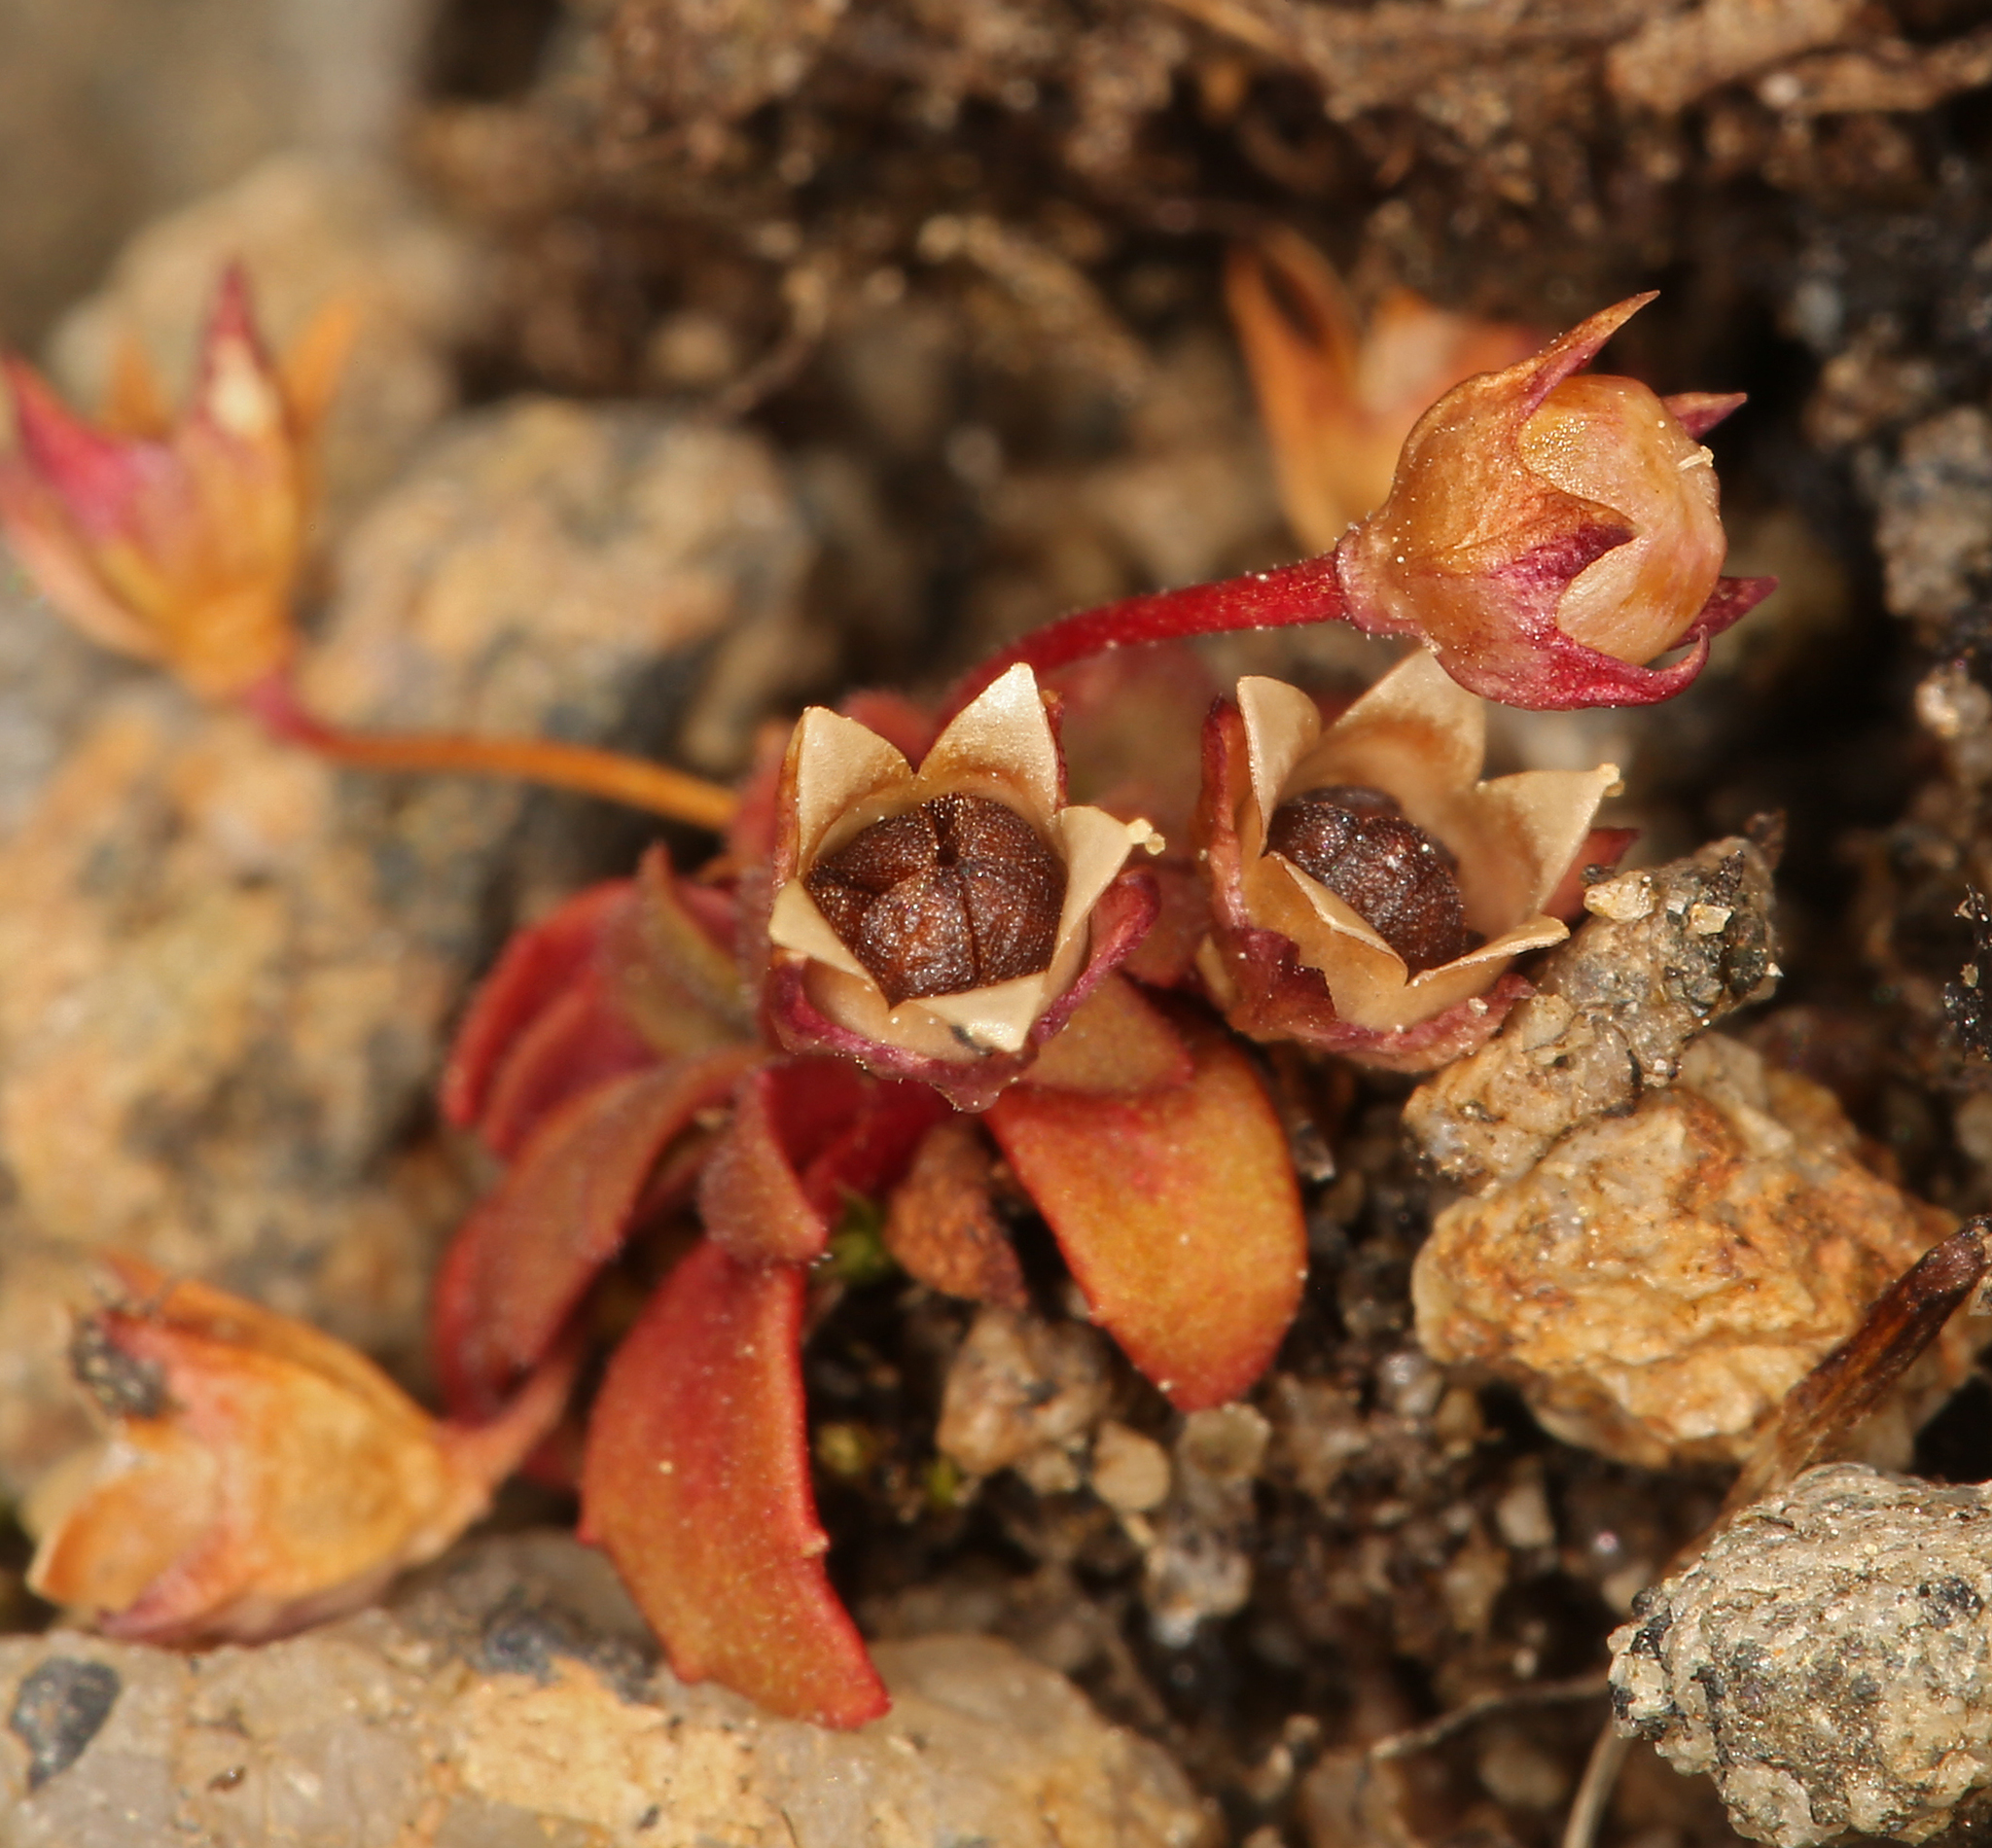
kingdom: Plantae
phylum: Tracheophyta
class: Magnoliopsida
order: Ericales
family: Primulaceae
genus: Androsace
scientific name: Androsace septentrionalis
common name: Hairy northern fairy-candelabra
